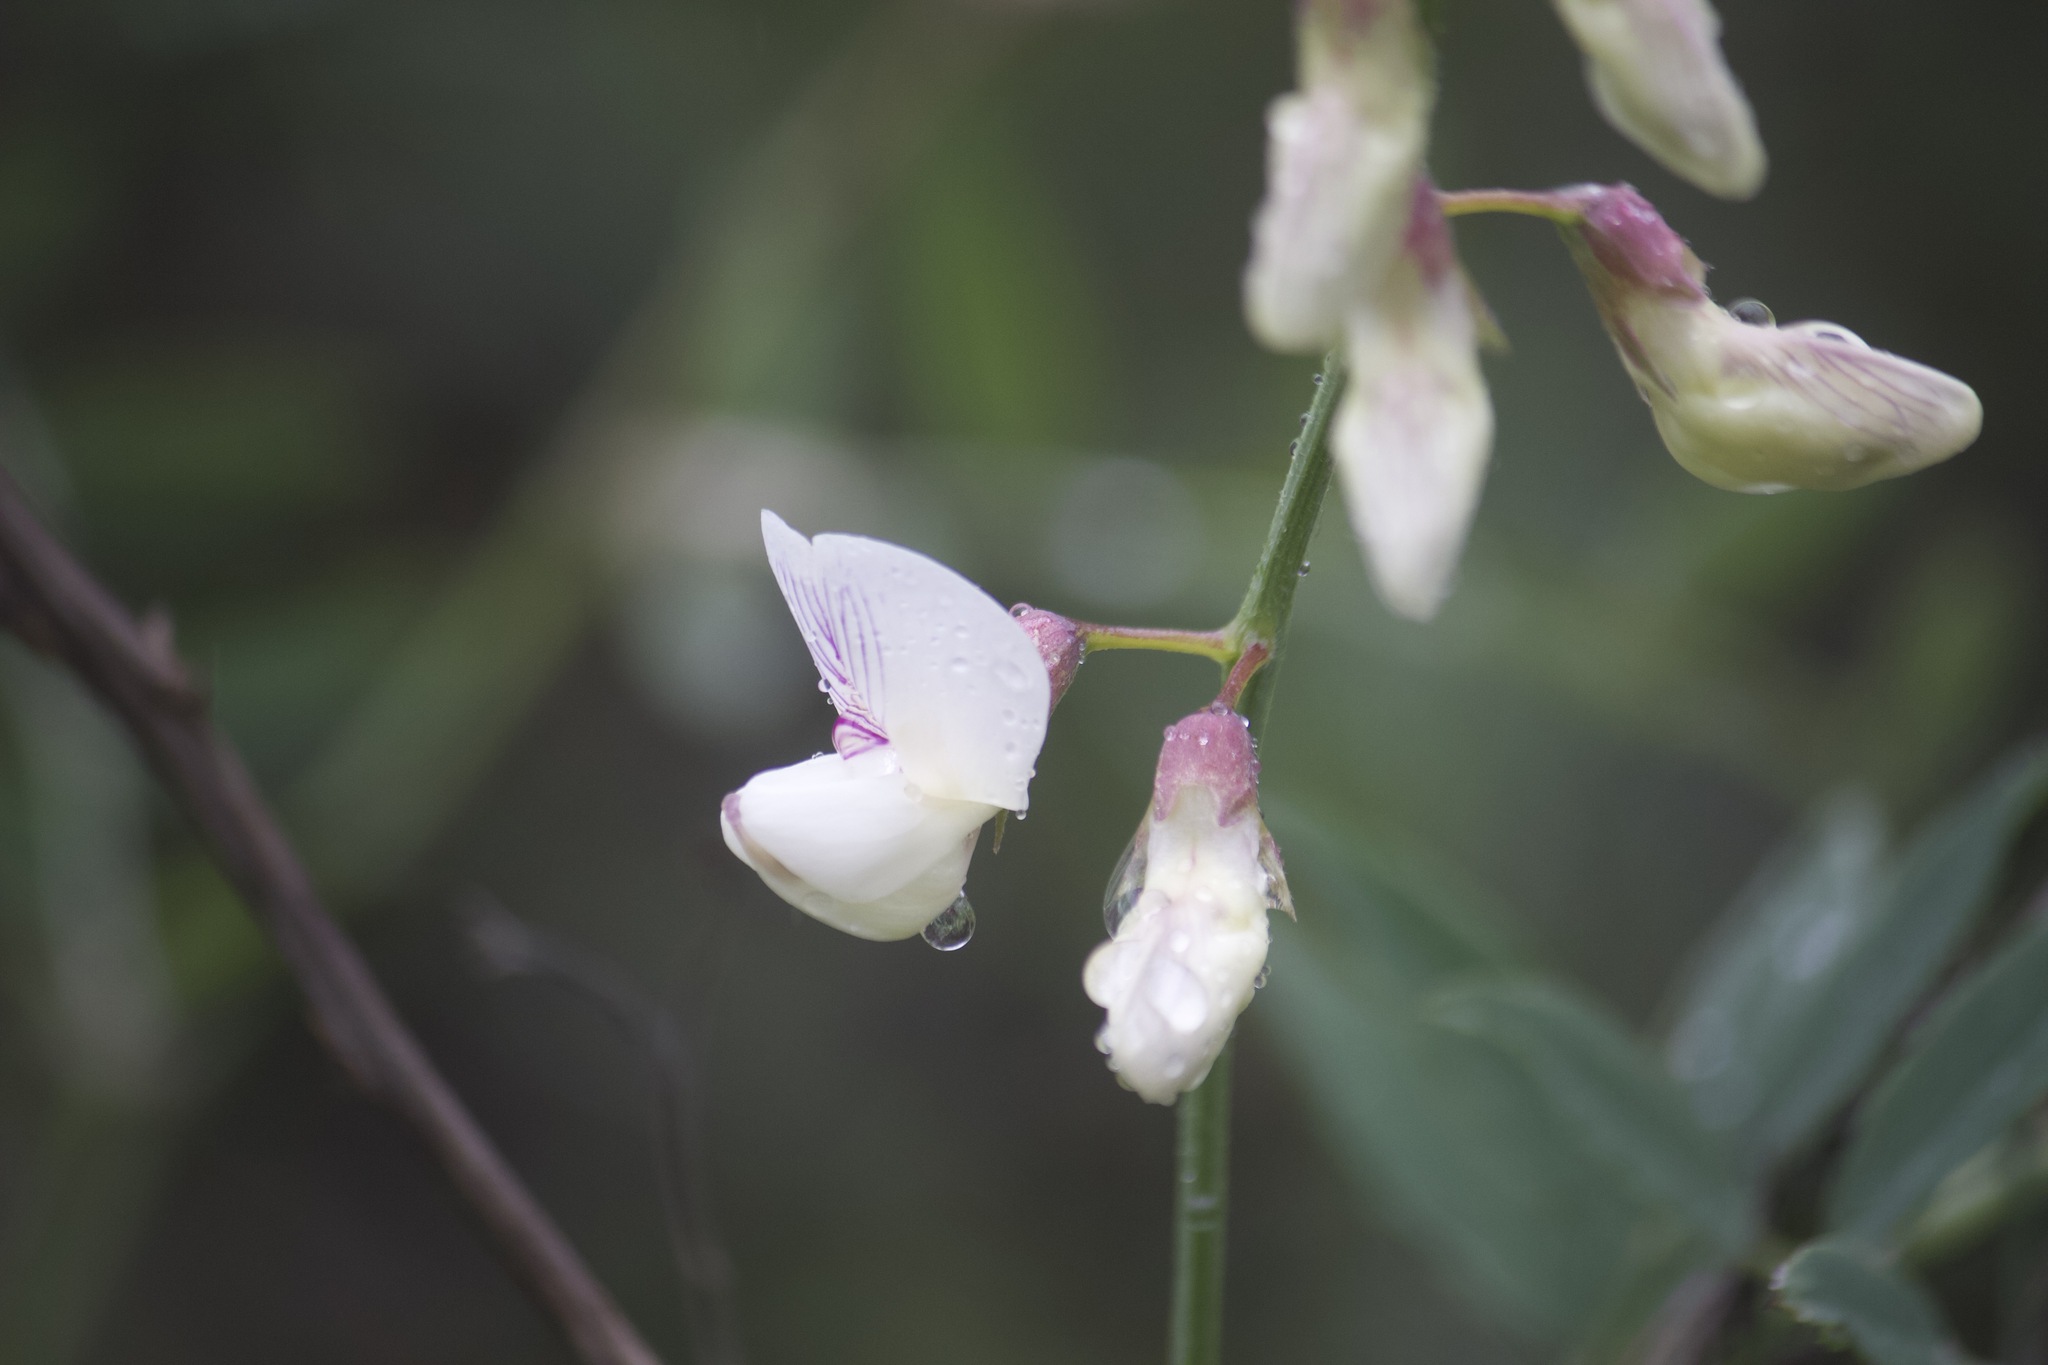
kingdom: Plantae
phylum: Tracheophyta
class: Magnoliopsida
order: Fabales
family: Fabaceae
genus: Lathyrus
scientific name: Lathyrus vestitus
